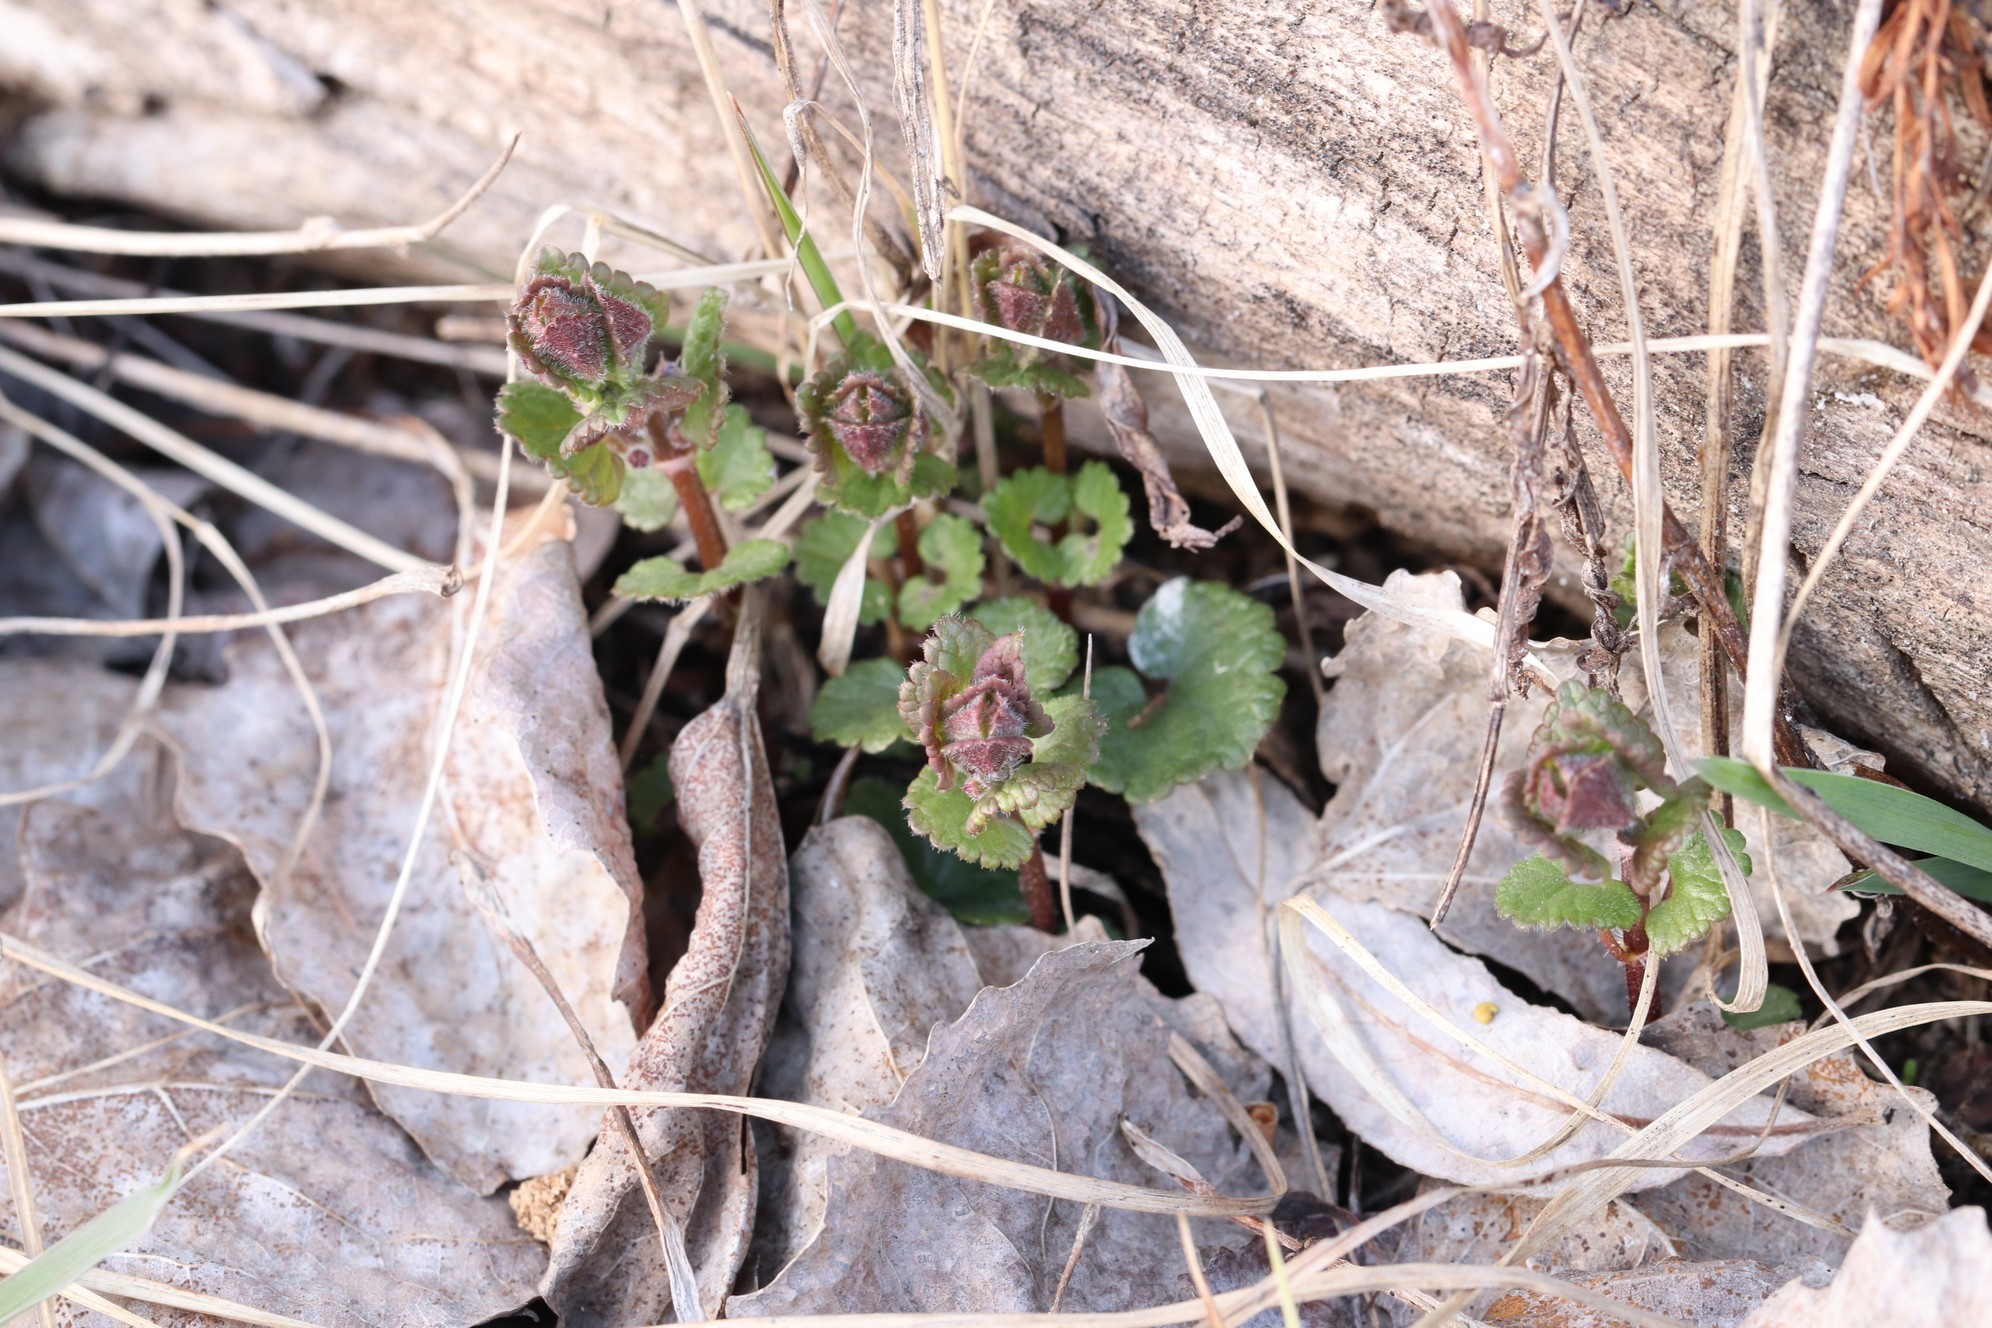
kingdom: Plantae
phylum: Tracheophyta
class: Magnoliopsida
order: Lamiales
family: Lamiaceae
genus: Glechoma
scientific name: Glechoma hederacea
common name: Ground ivy
